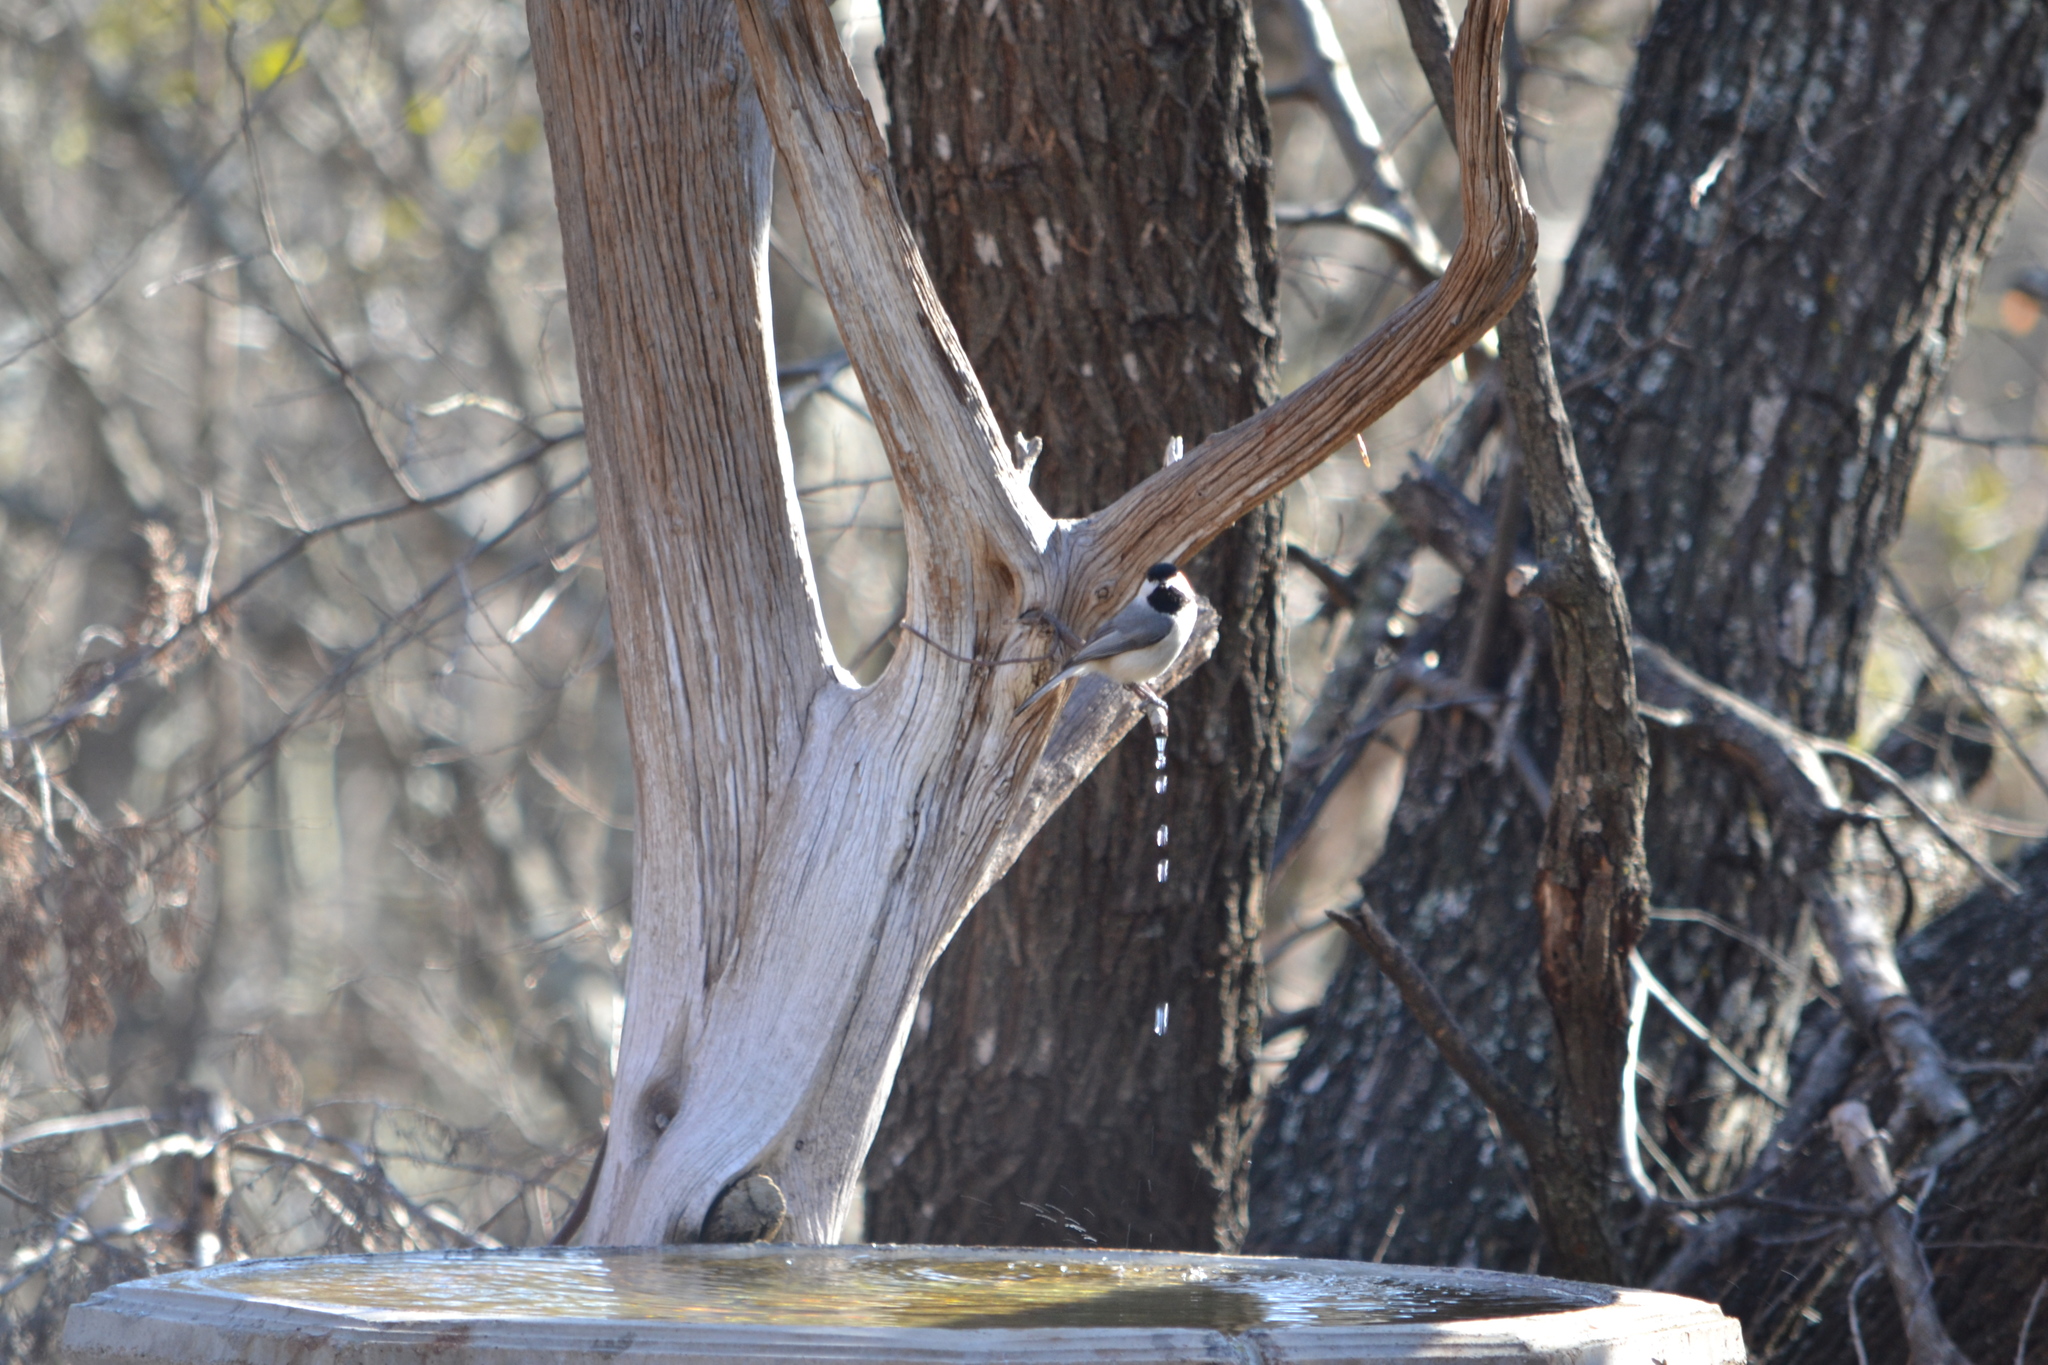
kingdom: Animalia
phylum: Chordata
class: Aves
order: Passeriformes
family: Paridae
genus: Poecile
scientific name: Poecile carolinensis
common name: Carolina chickadee
